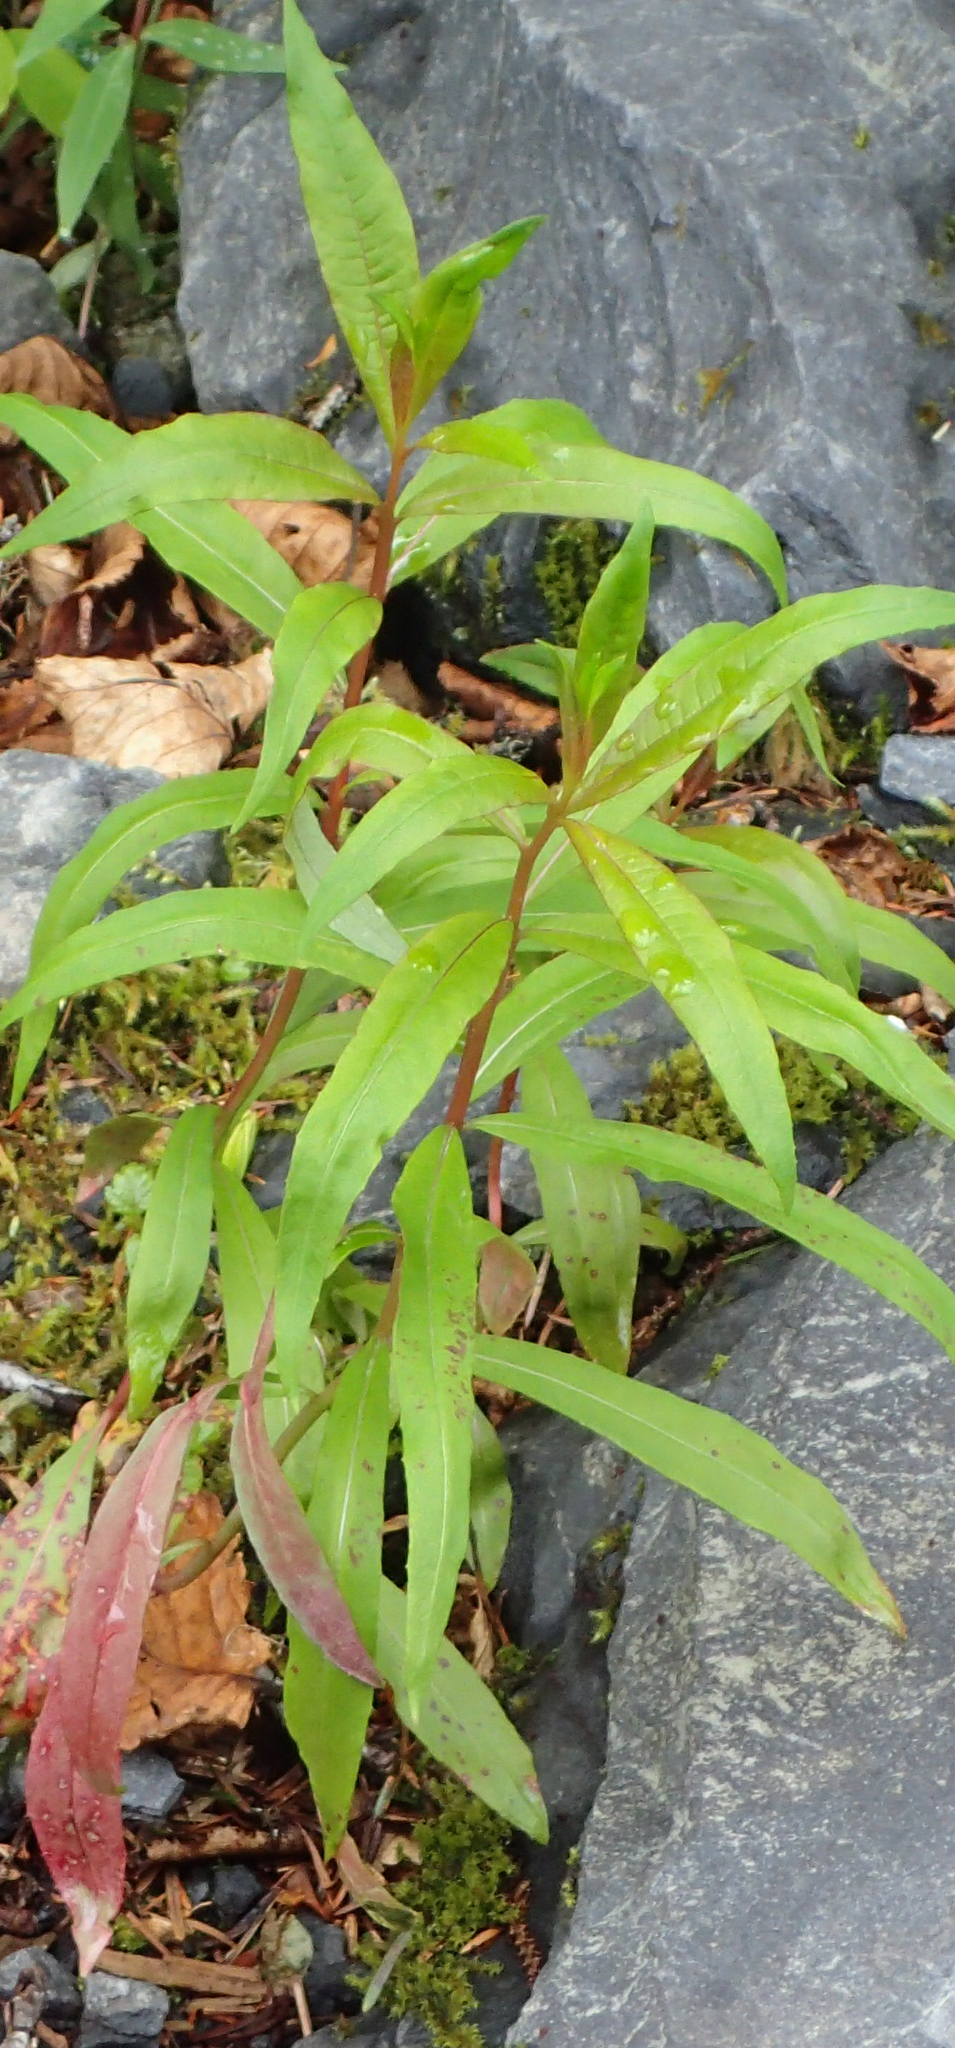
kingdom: Plantae
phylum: Tracheophyta
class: Magnoliopsida
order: Myrtales
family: Onagraceae
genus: Chamaenerion
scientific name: Chamaenerion angustifolium
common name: Fireweed
